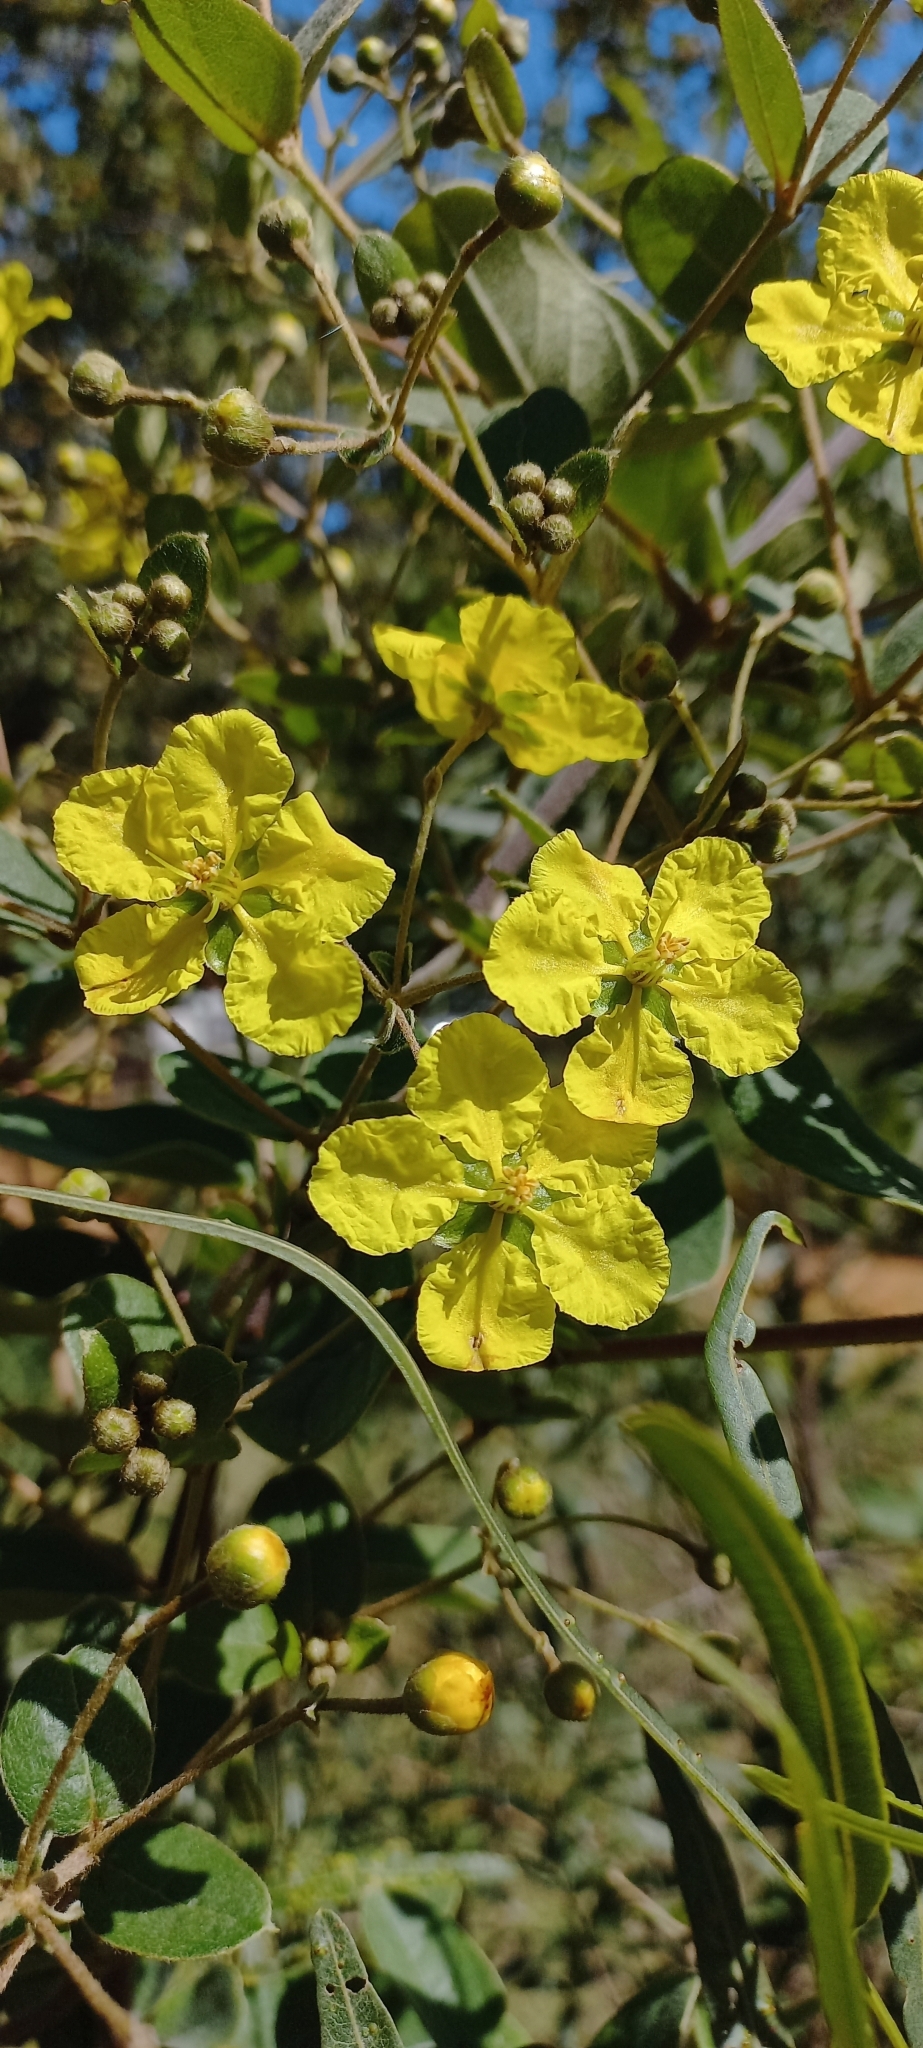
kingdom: Plantae
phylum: Tracheophyta
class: Magnoliopsida
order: Malpighiales
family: Malpighiaceae
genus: Sphedamnocarpus
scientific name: Sphedamnocarpus pruriens
